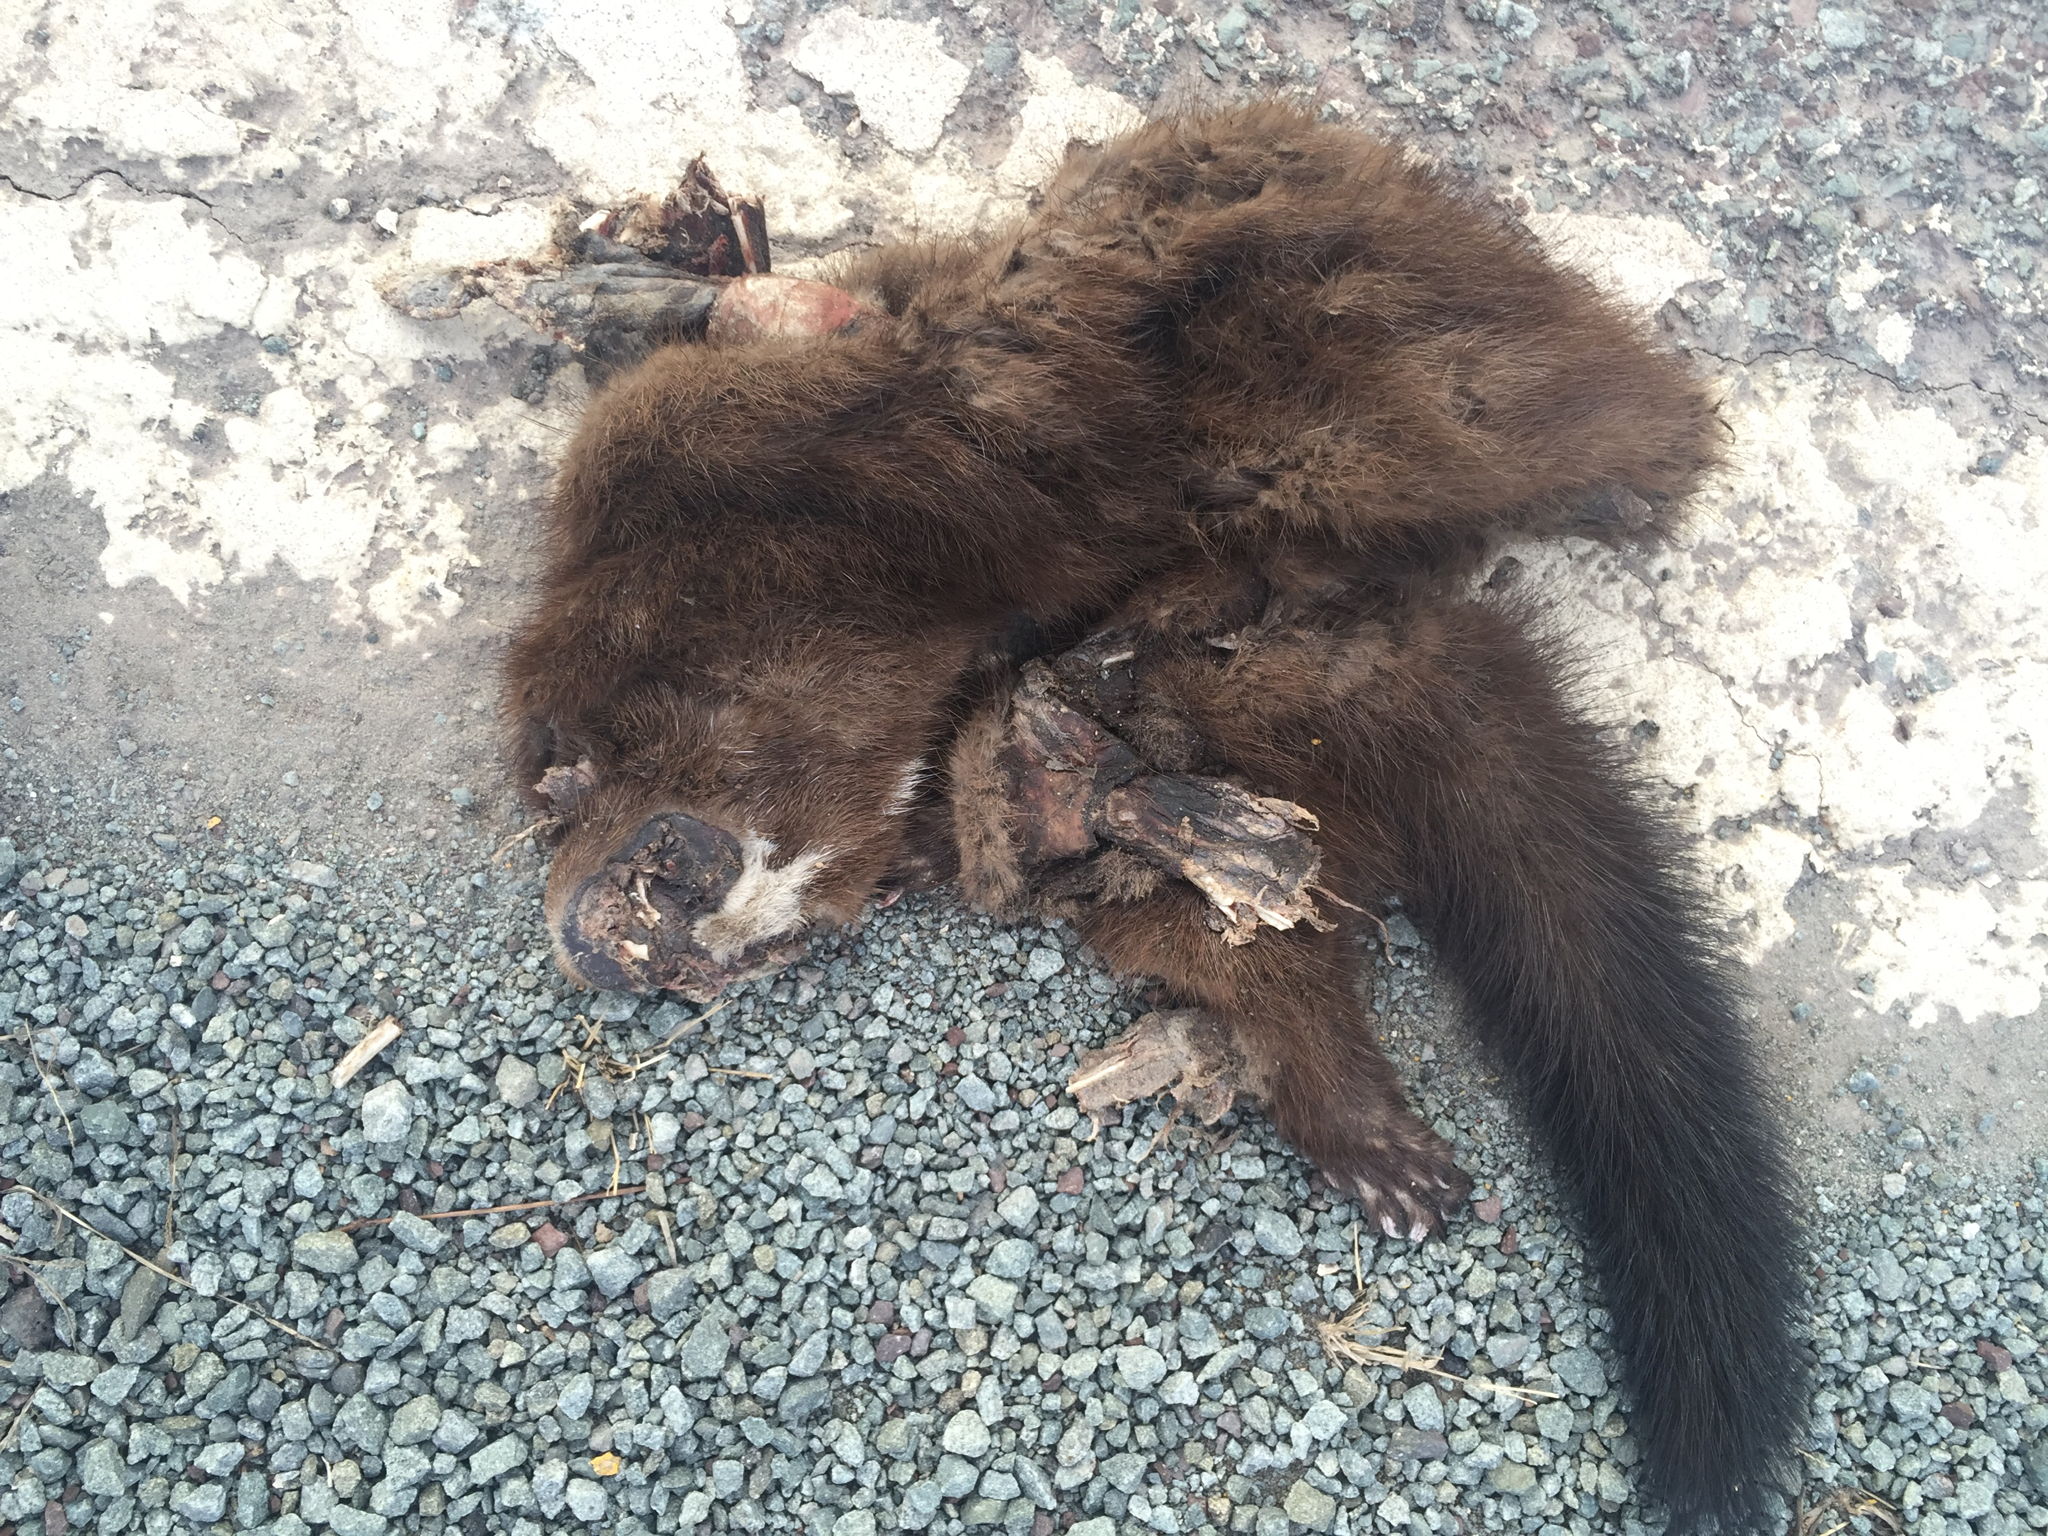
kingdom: Animalia
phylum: Chordata
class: Mammalia
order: Carnivora
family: Mustelidae
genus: Mustela
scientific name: Mustela
